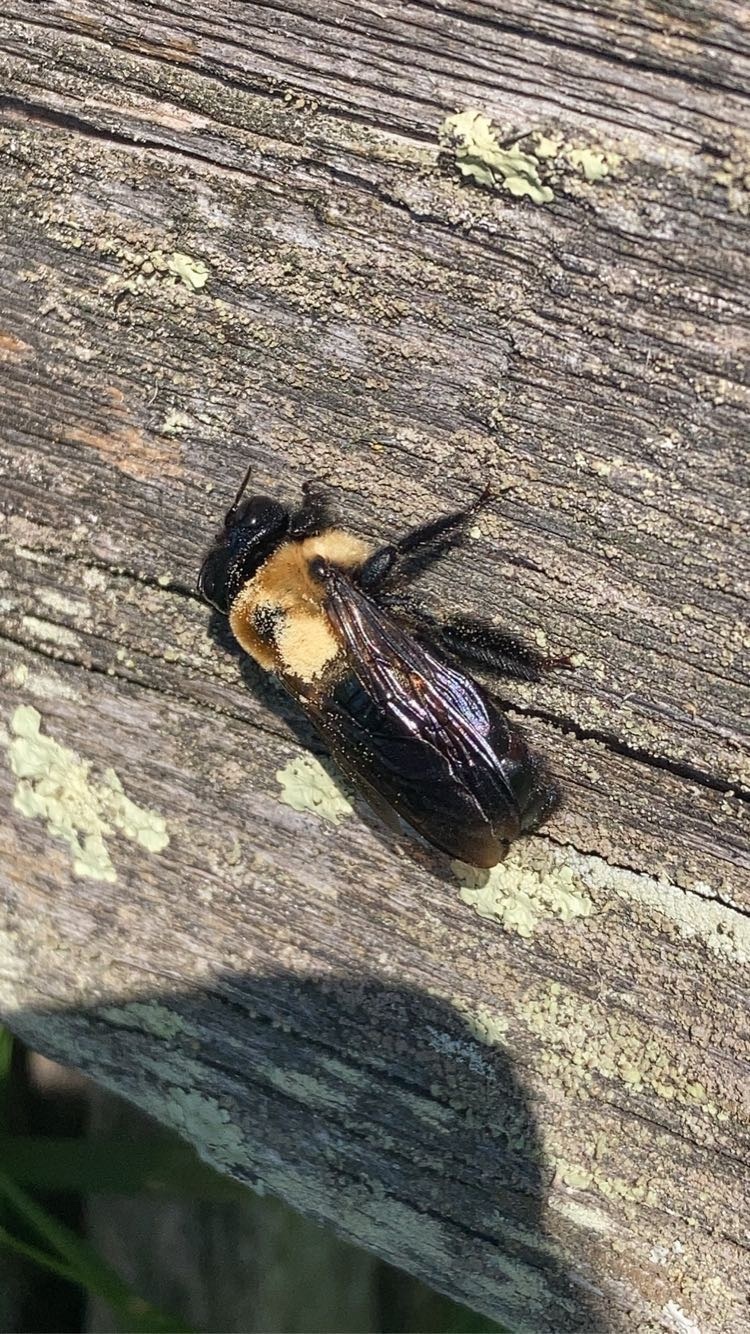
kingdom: Animalia
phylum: Arthropoda
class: Insecta
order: Hymenoptera
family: Apidae
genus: Xylocopa
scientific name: Xylocopa virginica
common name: Carpenter bee
